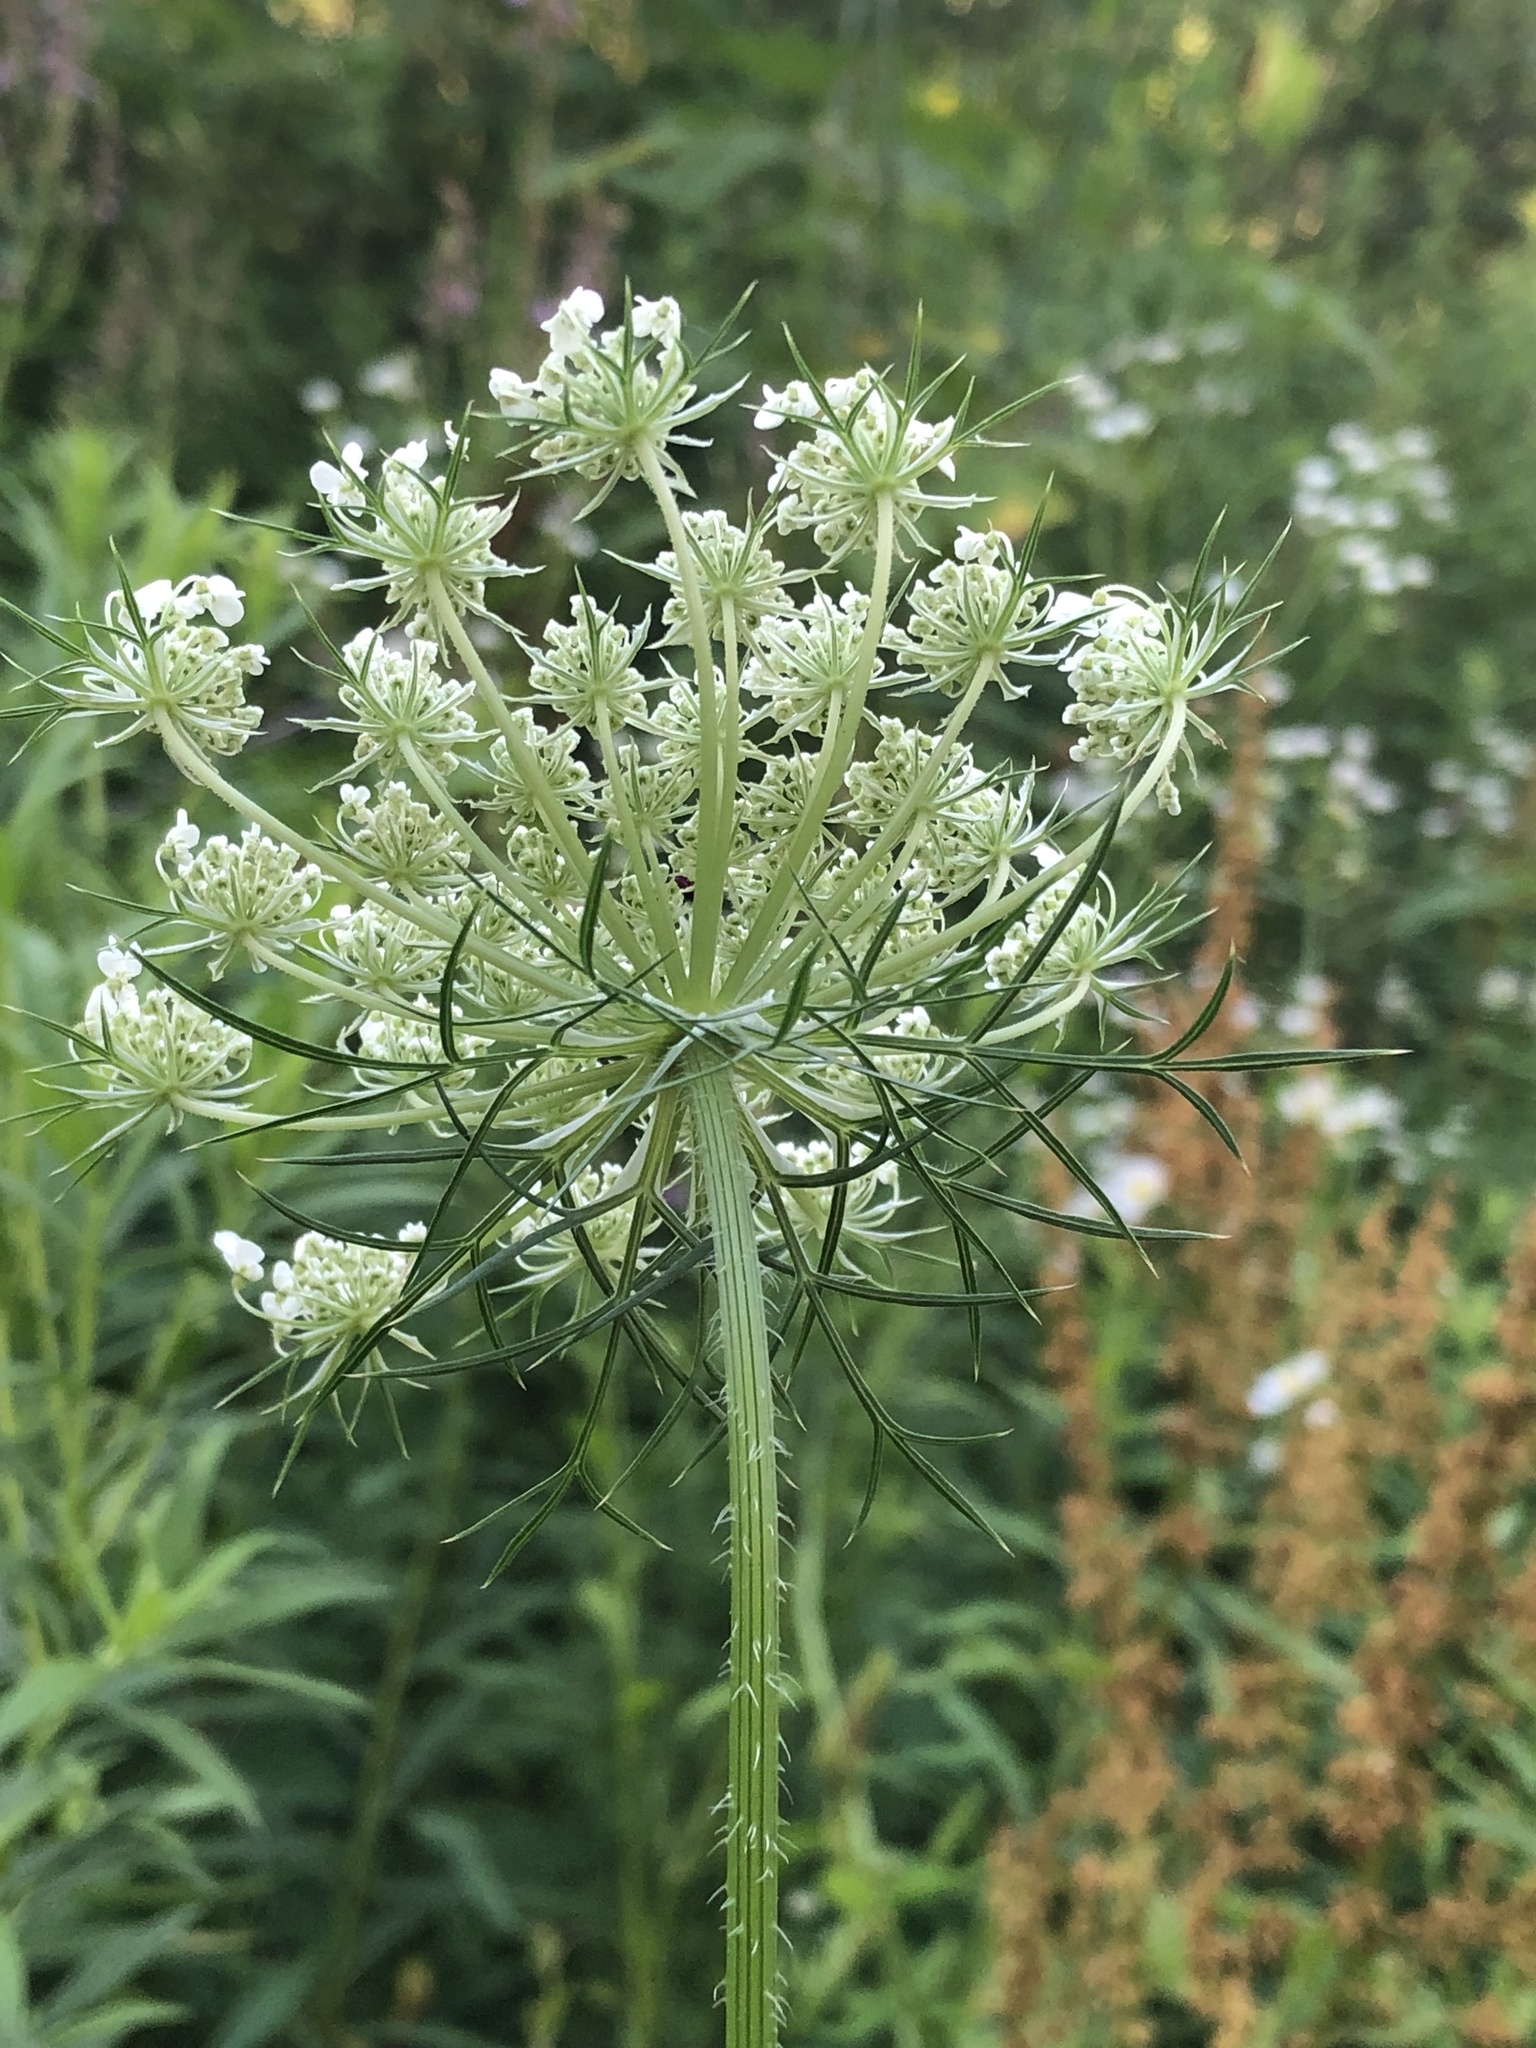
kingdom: Plantae
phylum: Tracheophyta
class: Magnoliopsida
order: Apiales
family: Apiaceae
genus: Daucus
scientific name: Daucus carota
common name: Wild carrot
